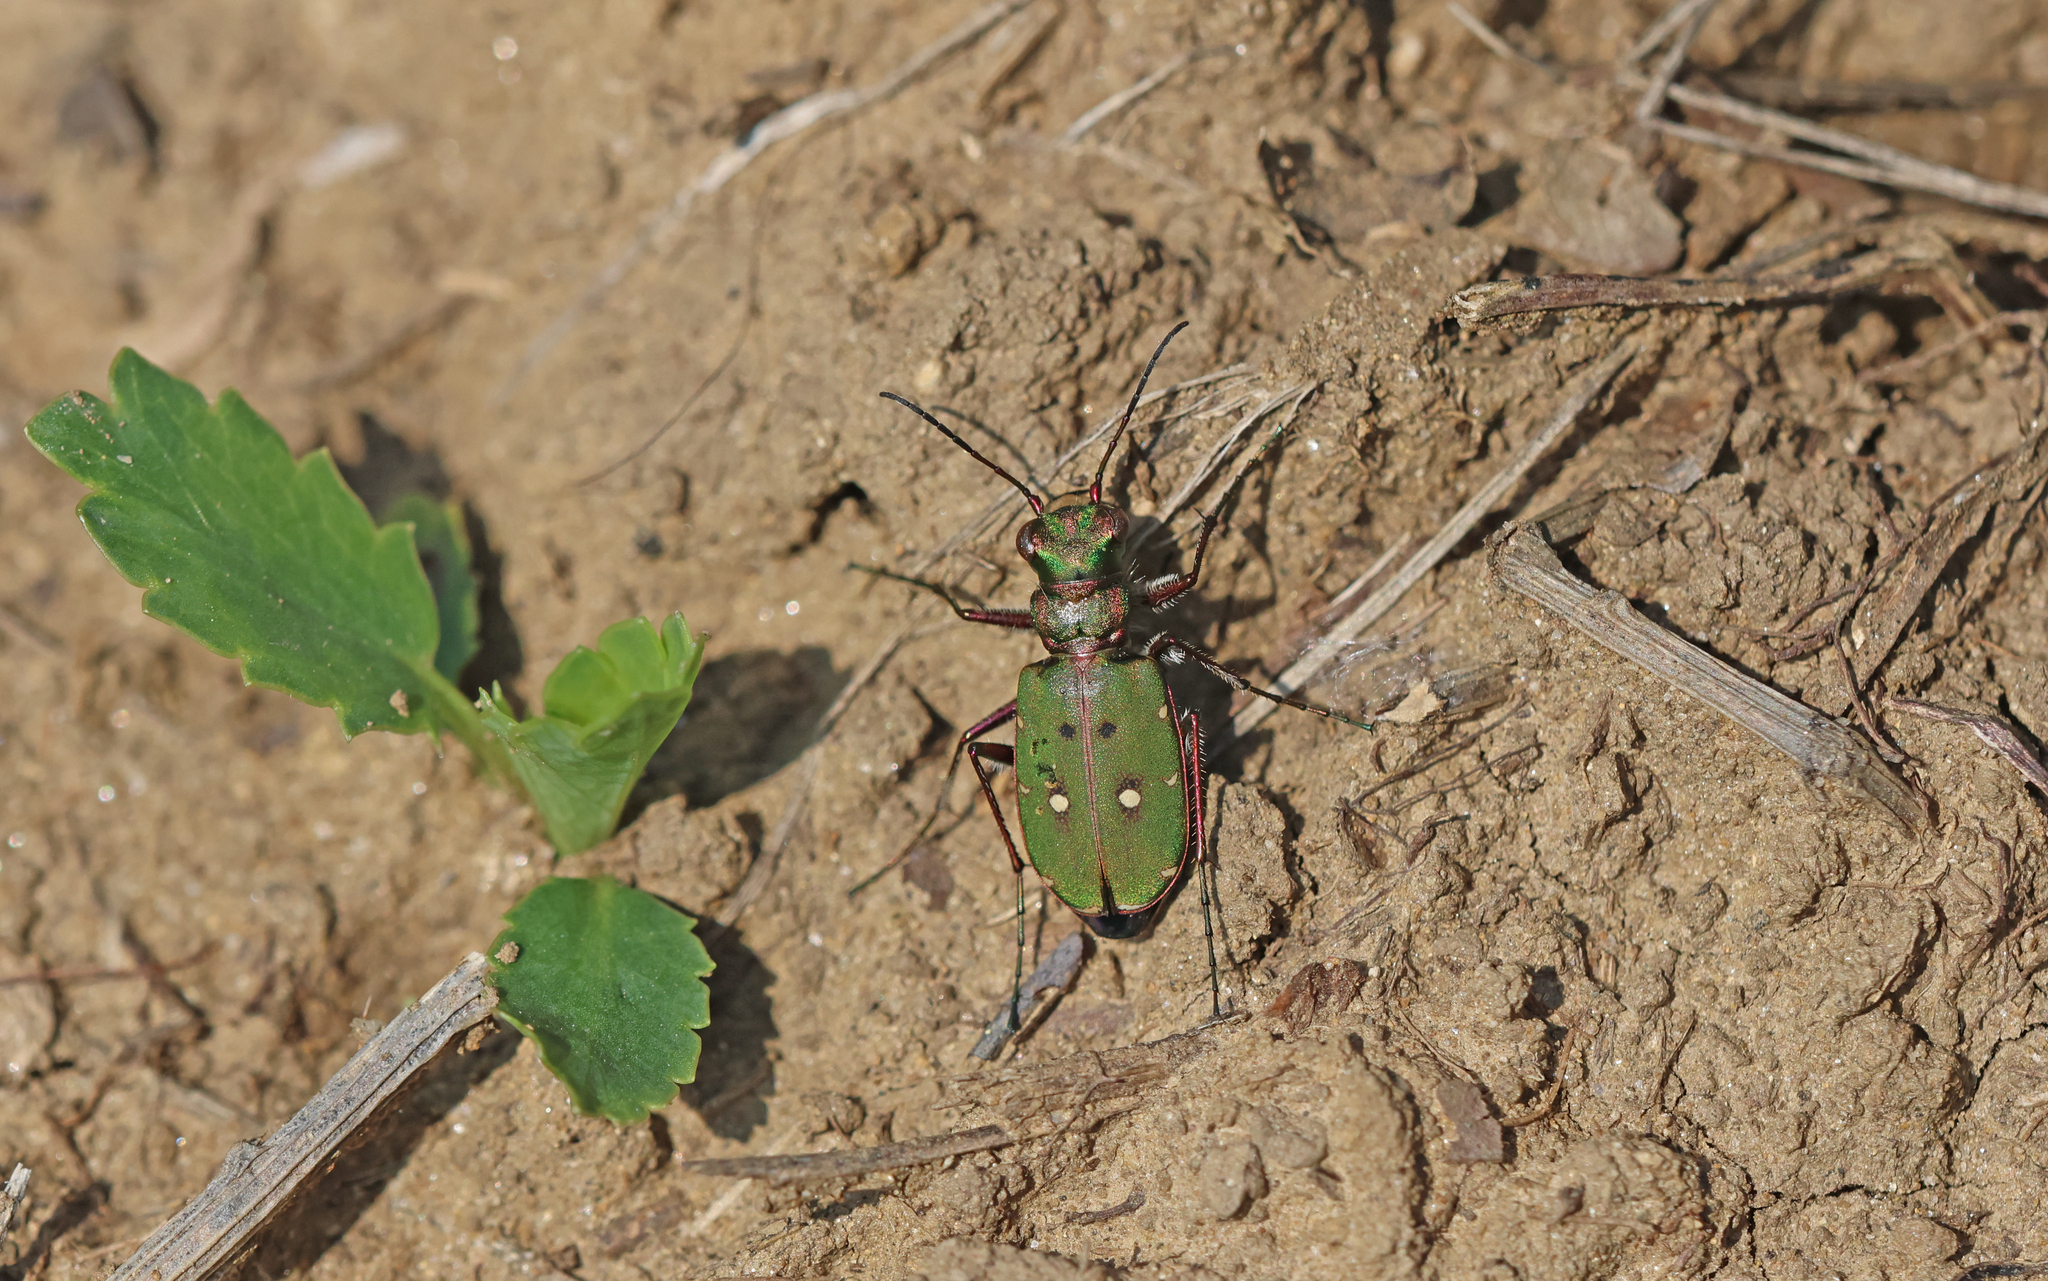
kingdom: Animalia
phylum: Arthropoda
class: Insecta
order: Coleoptera
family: Carabidae
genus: Cicindela
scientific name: Cicindela campestris
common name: Common tiger beetle
